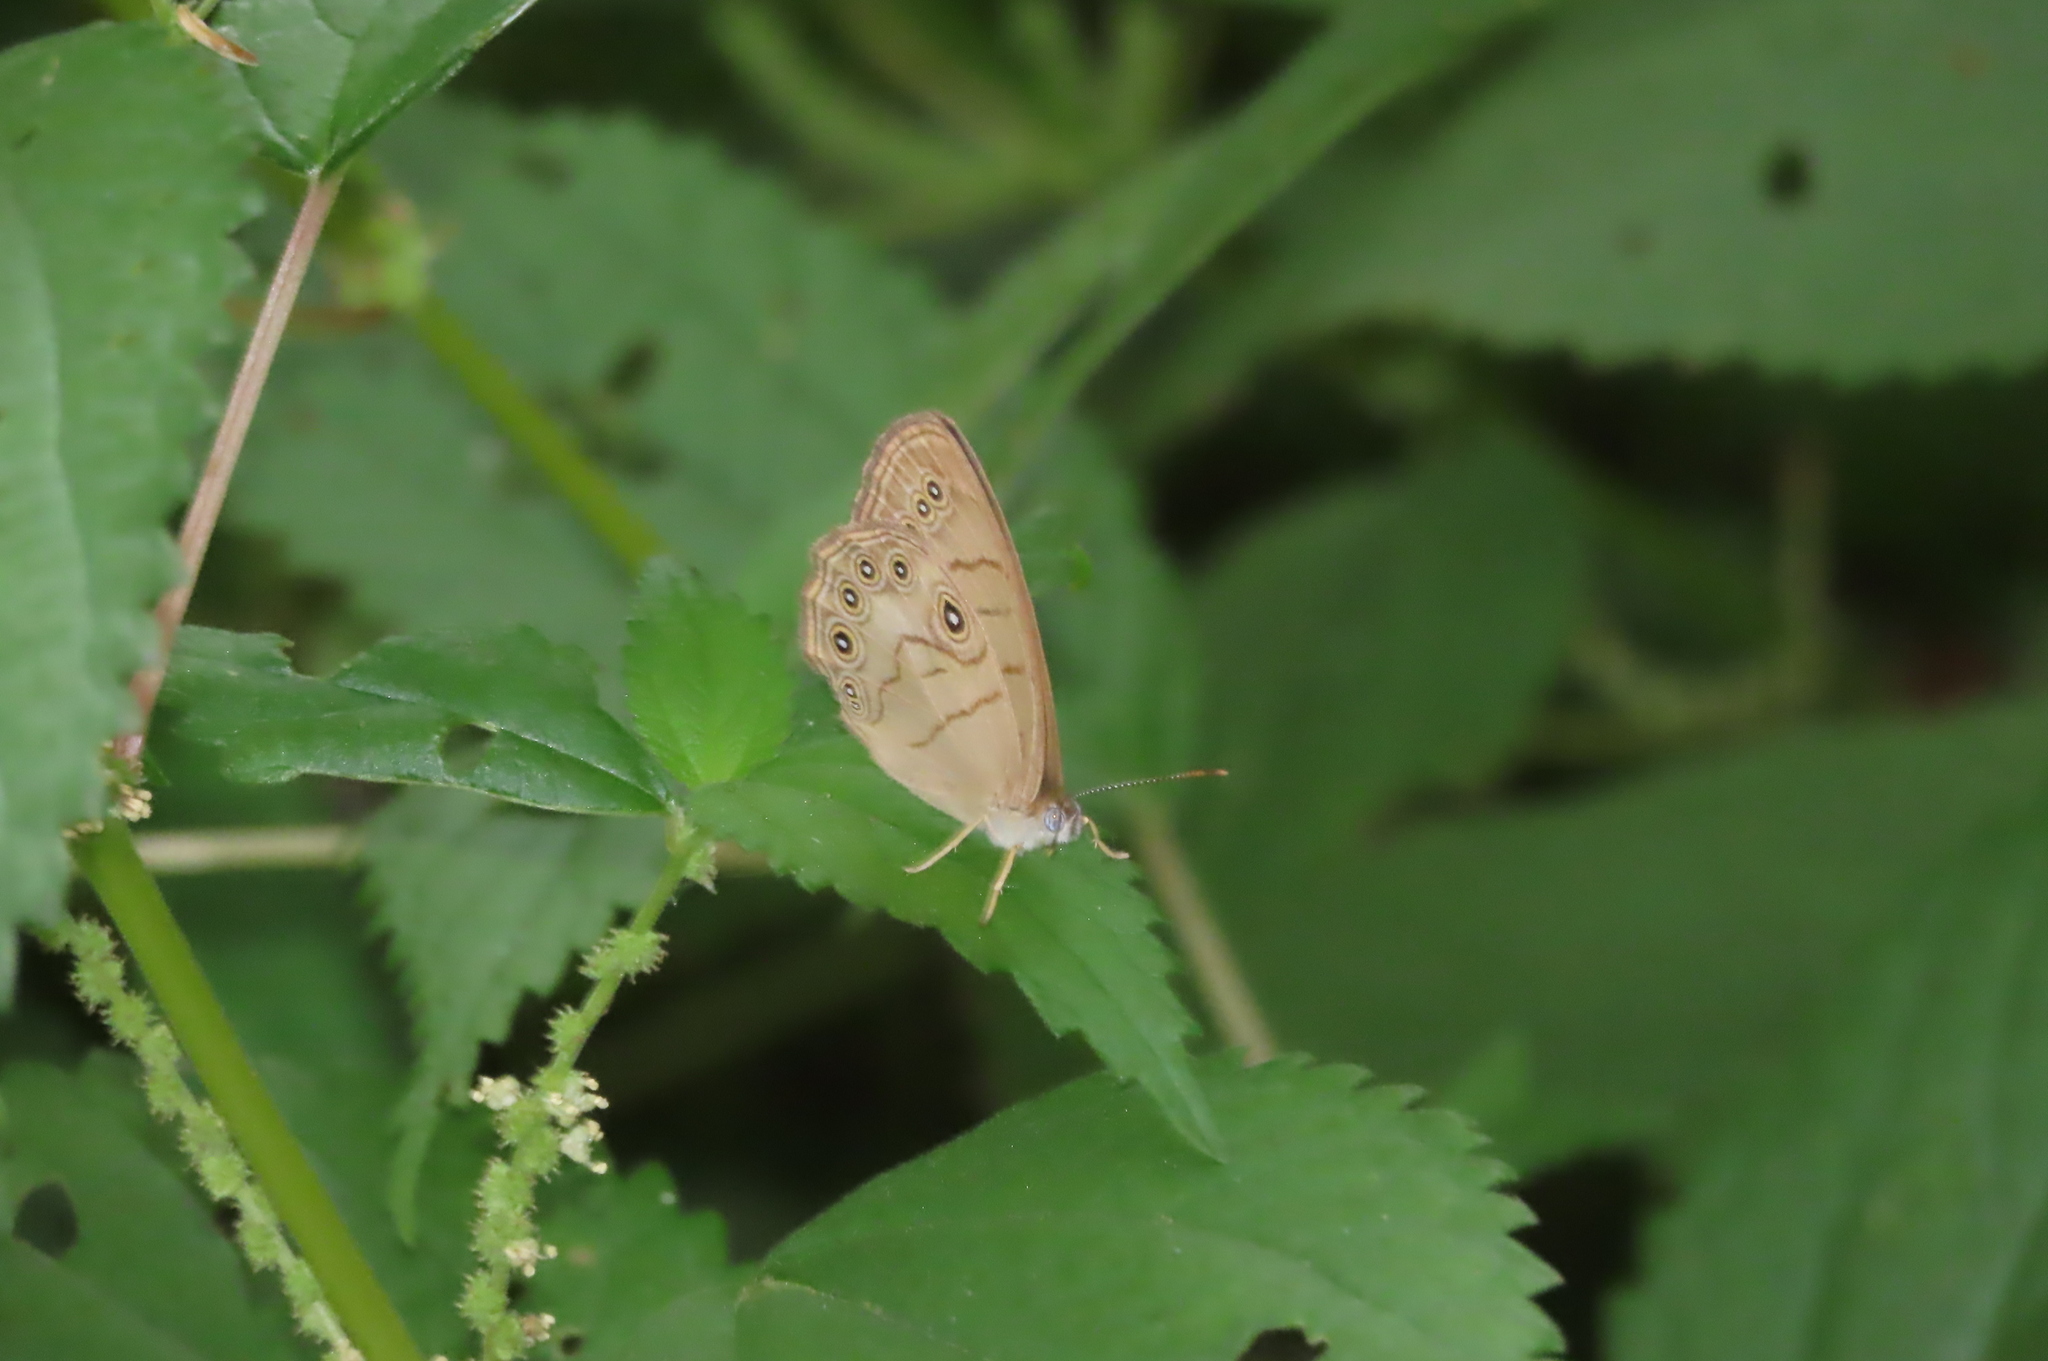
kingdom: Animalia
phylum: Arthropoda
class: Insecta
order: Lepidoptera
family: Nymphalidae
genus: Lethe
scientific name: Lethe eurydice
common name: Eyed brown
